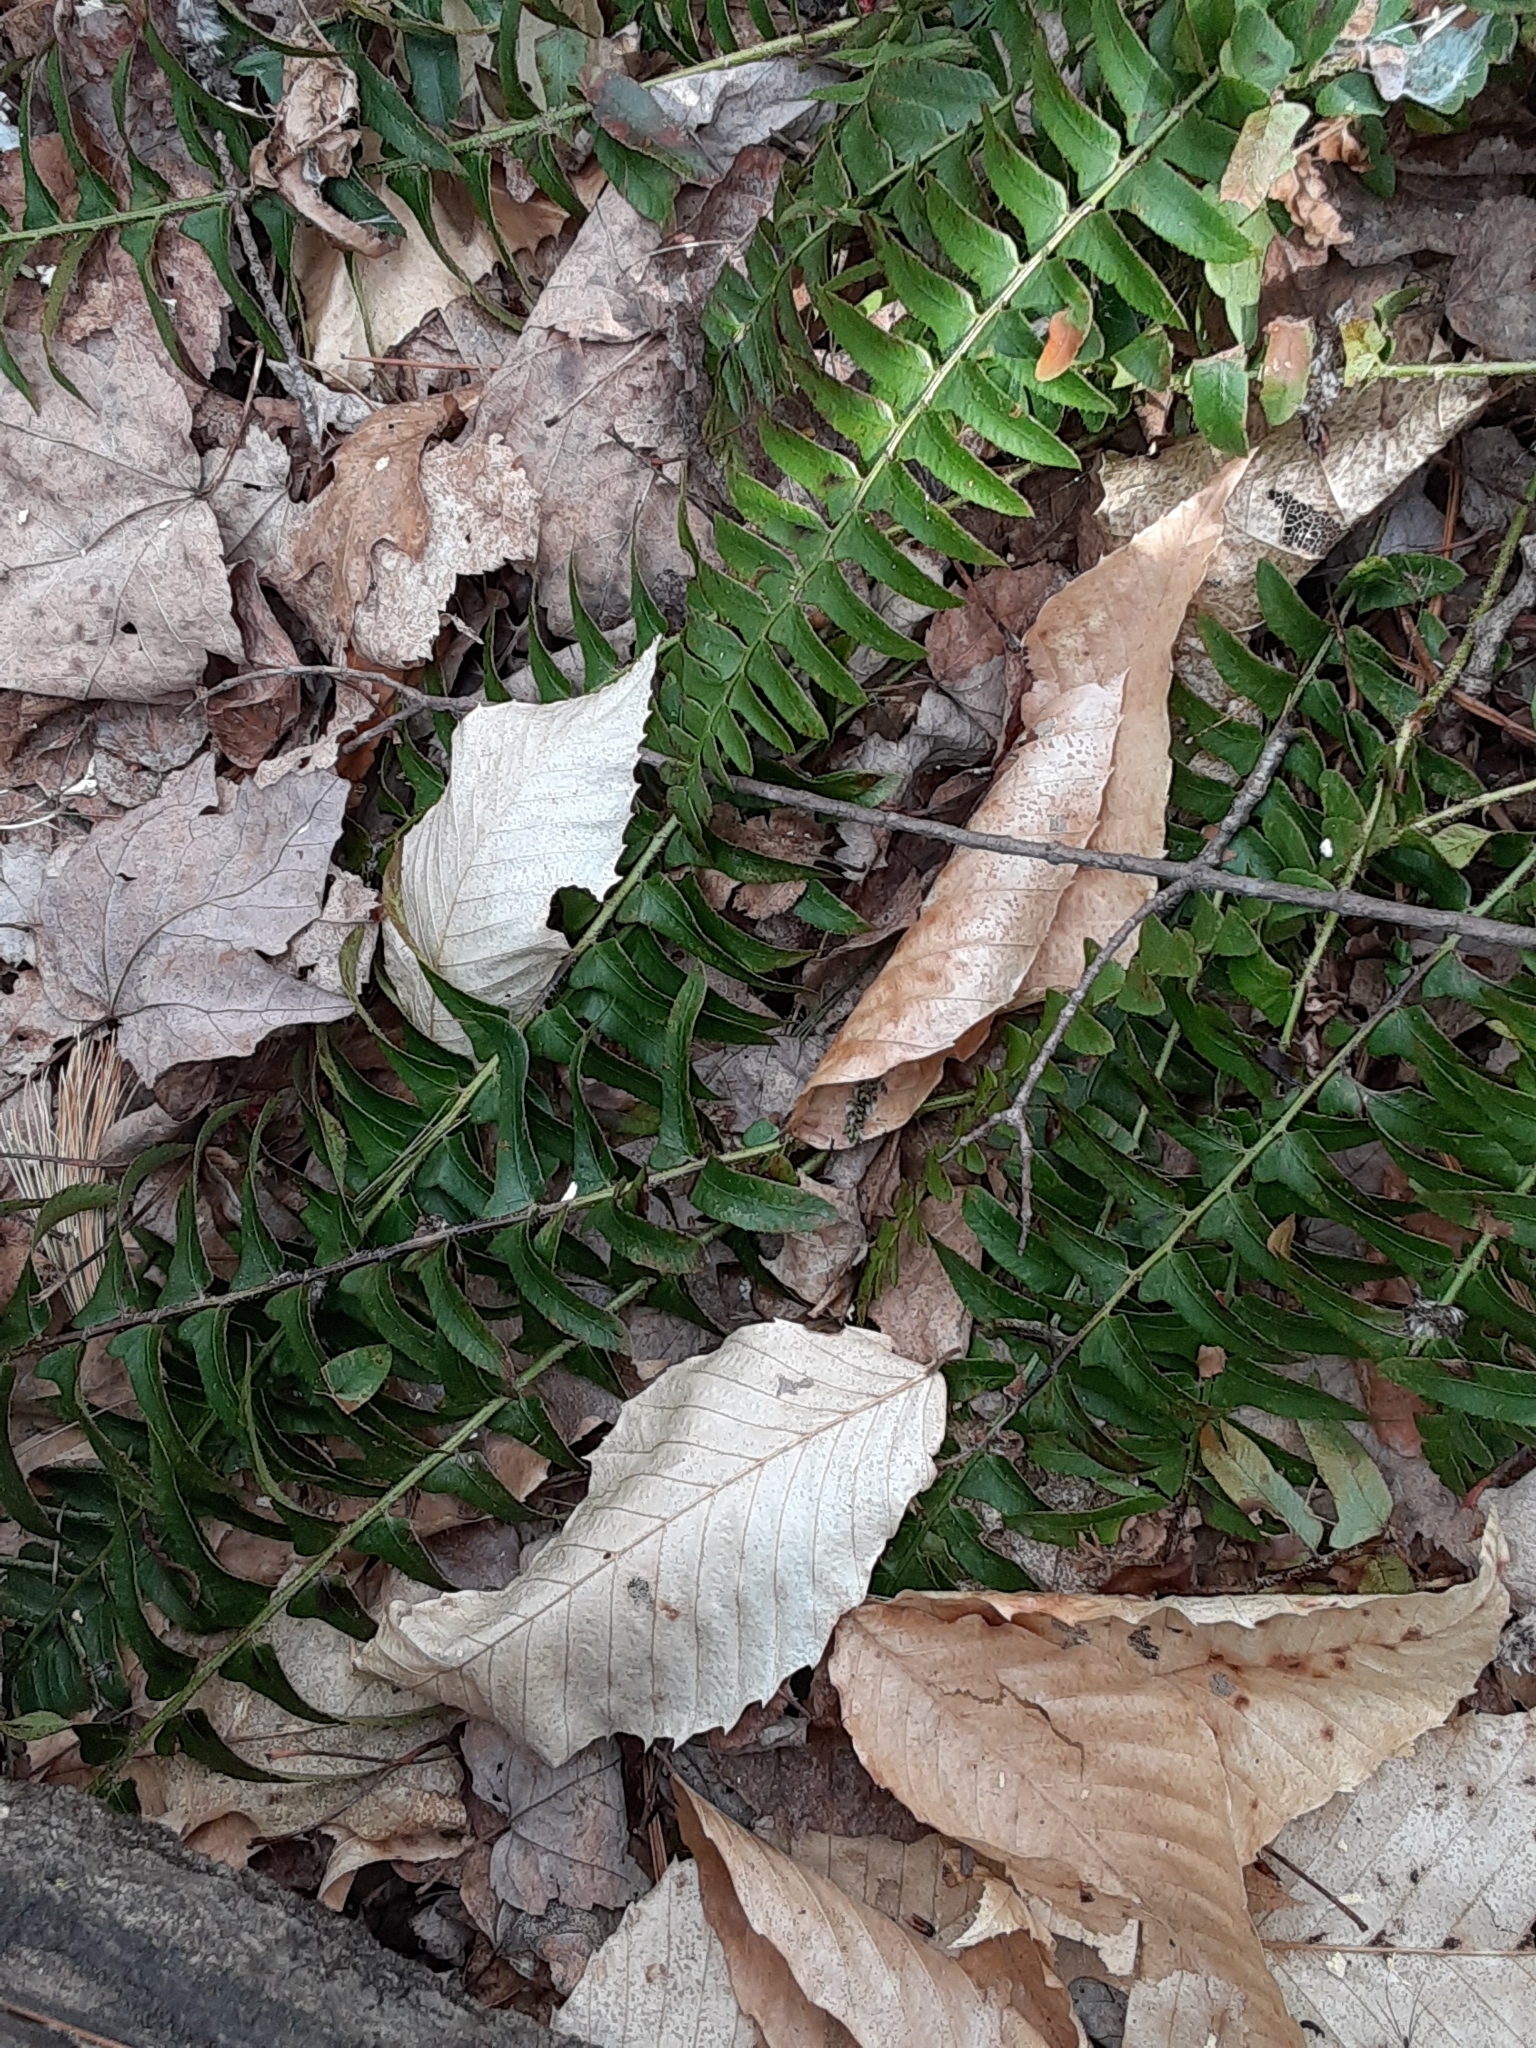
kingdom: Plantae
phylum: Tracheophyta
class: Polypodiopsida
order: Polypodiales
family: Dryopteridaceae
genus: Polystichum
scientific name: Polystichum acrostichoides
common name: Christmas fern
